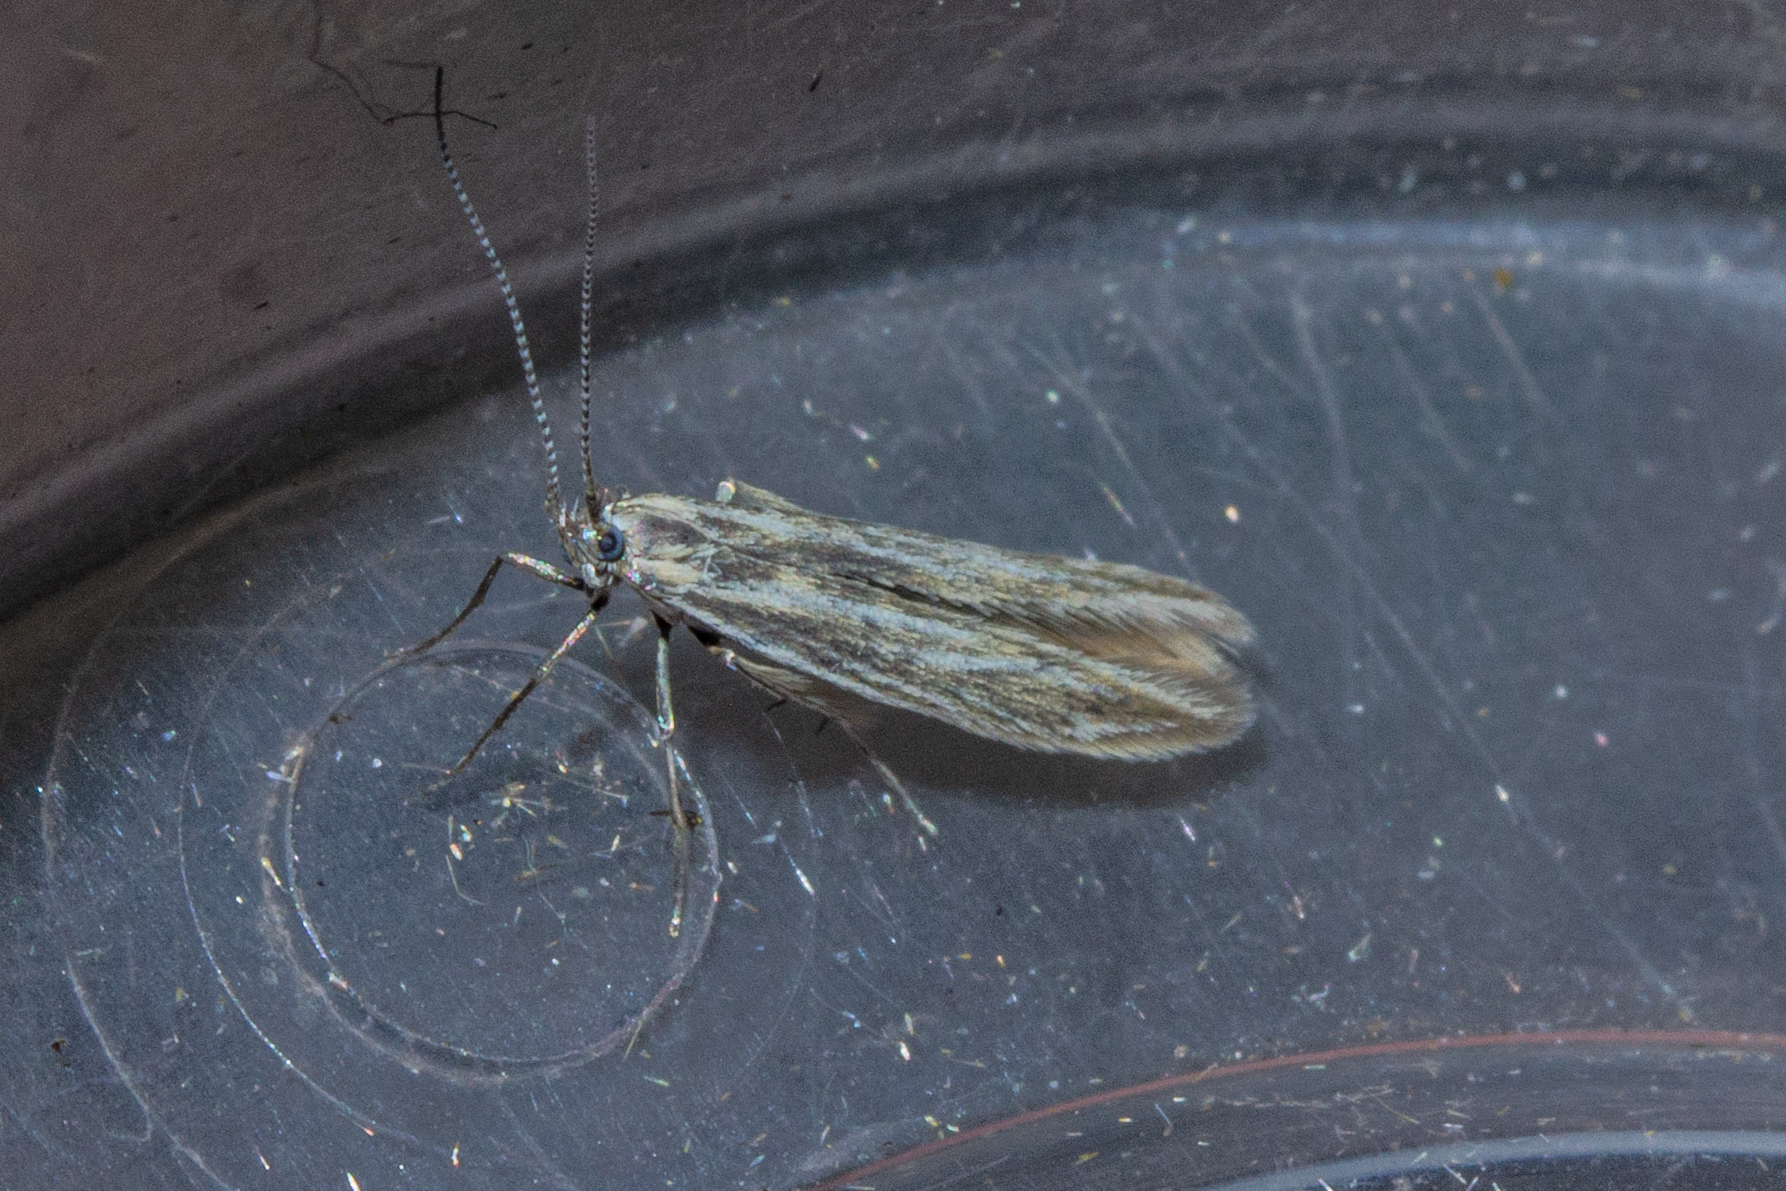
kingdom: Animalia
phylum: Arthropoda
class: Insecta
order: Lepidoptera
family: Coleophoridae
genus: Coleophora
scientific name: Coleophora striatipennella
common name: Hedge case-bearer
